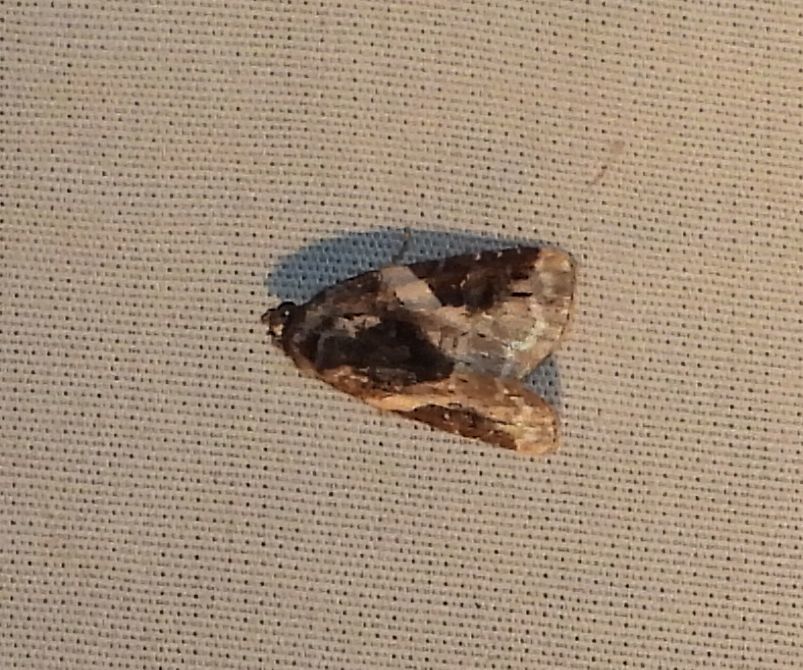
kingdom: Animalia
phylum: Arthropoda
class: Insecta
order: Lepidoptera
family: Noctuidae
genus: Pseudeustrotia
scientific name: Pseudeustrotia carneola
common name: Pink-barred lithacodia moth
